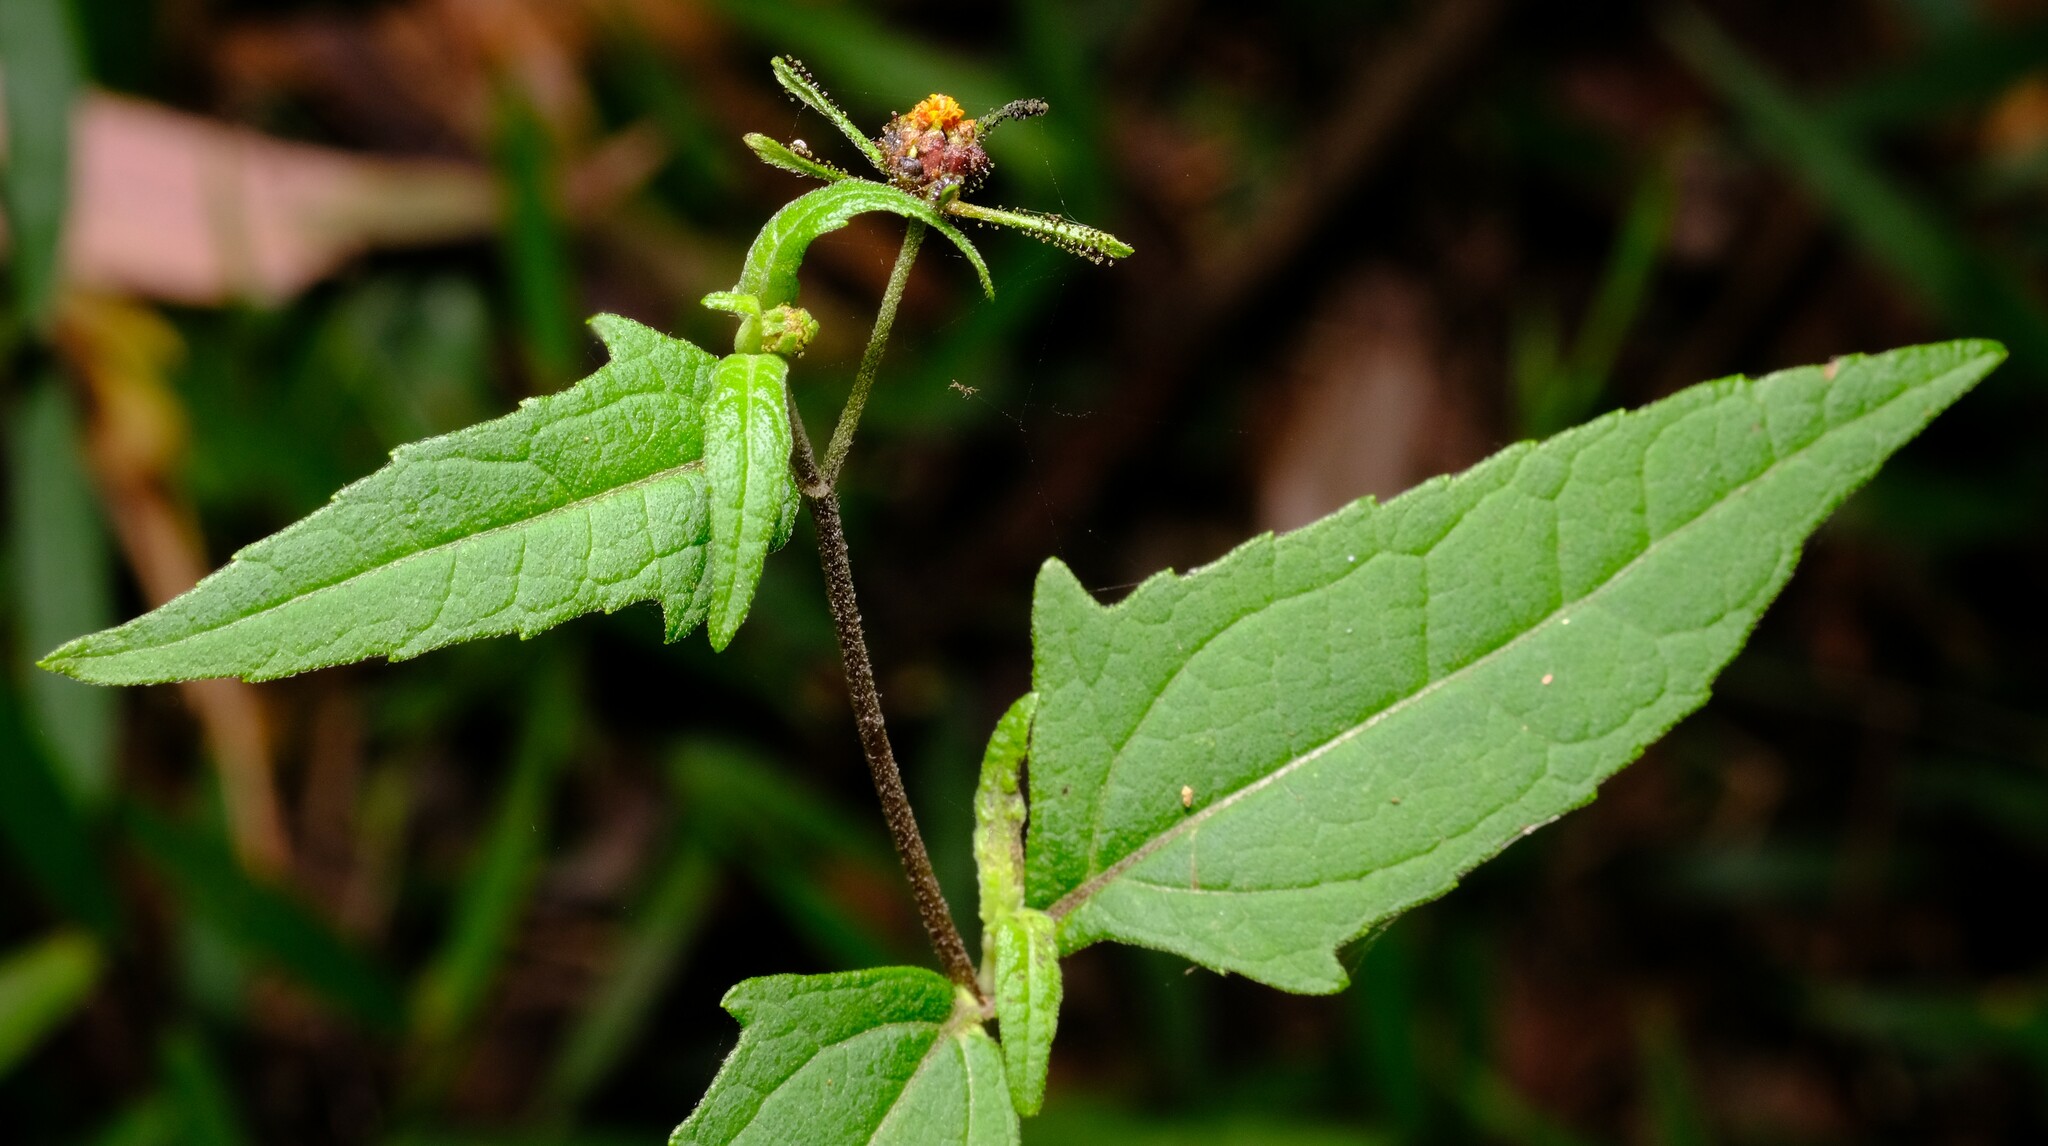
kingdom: Plantae
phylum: Tracheophyta
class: Magnoliopsida
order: Asterales
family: Asteraceae
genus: Sigesbeckia
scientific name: Sigesbeckia orientalis
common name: Eastern st paul's-wort
